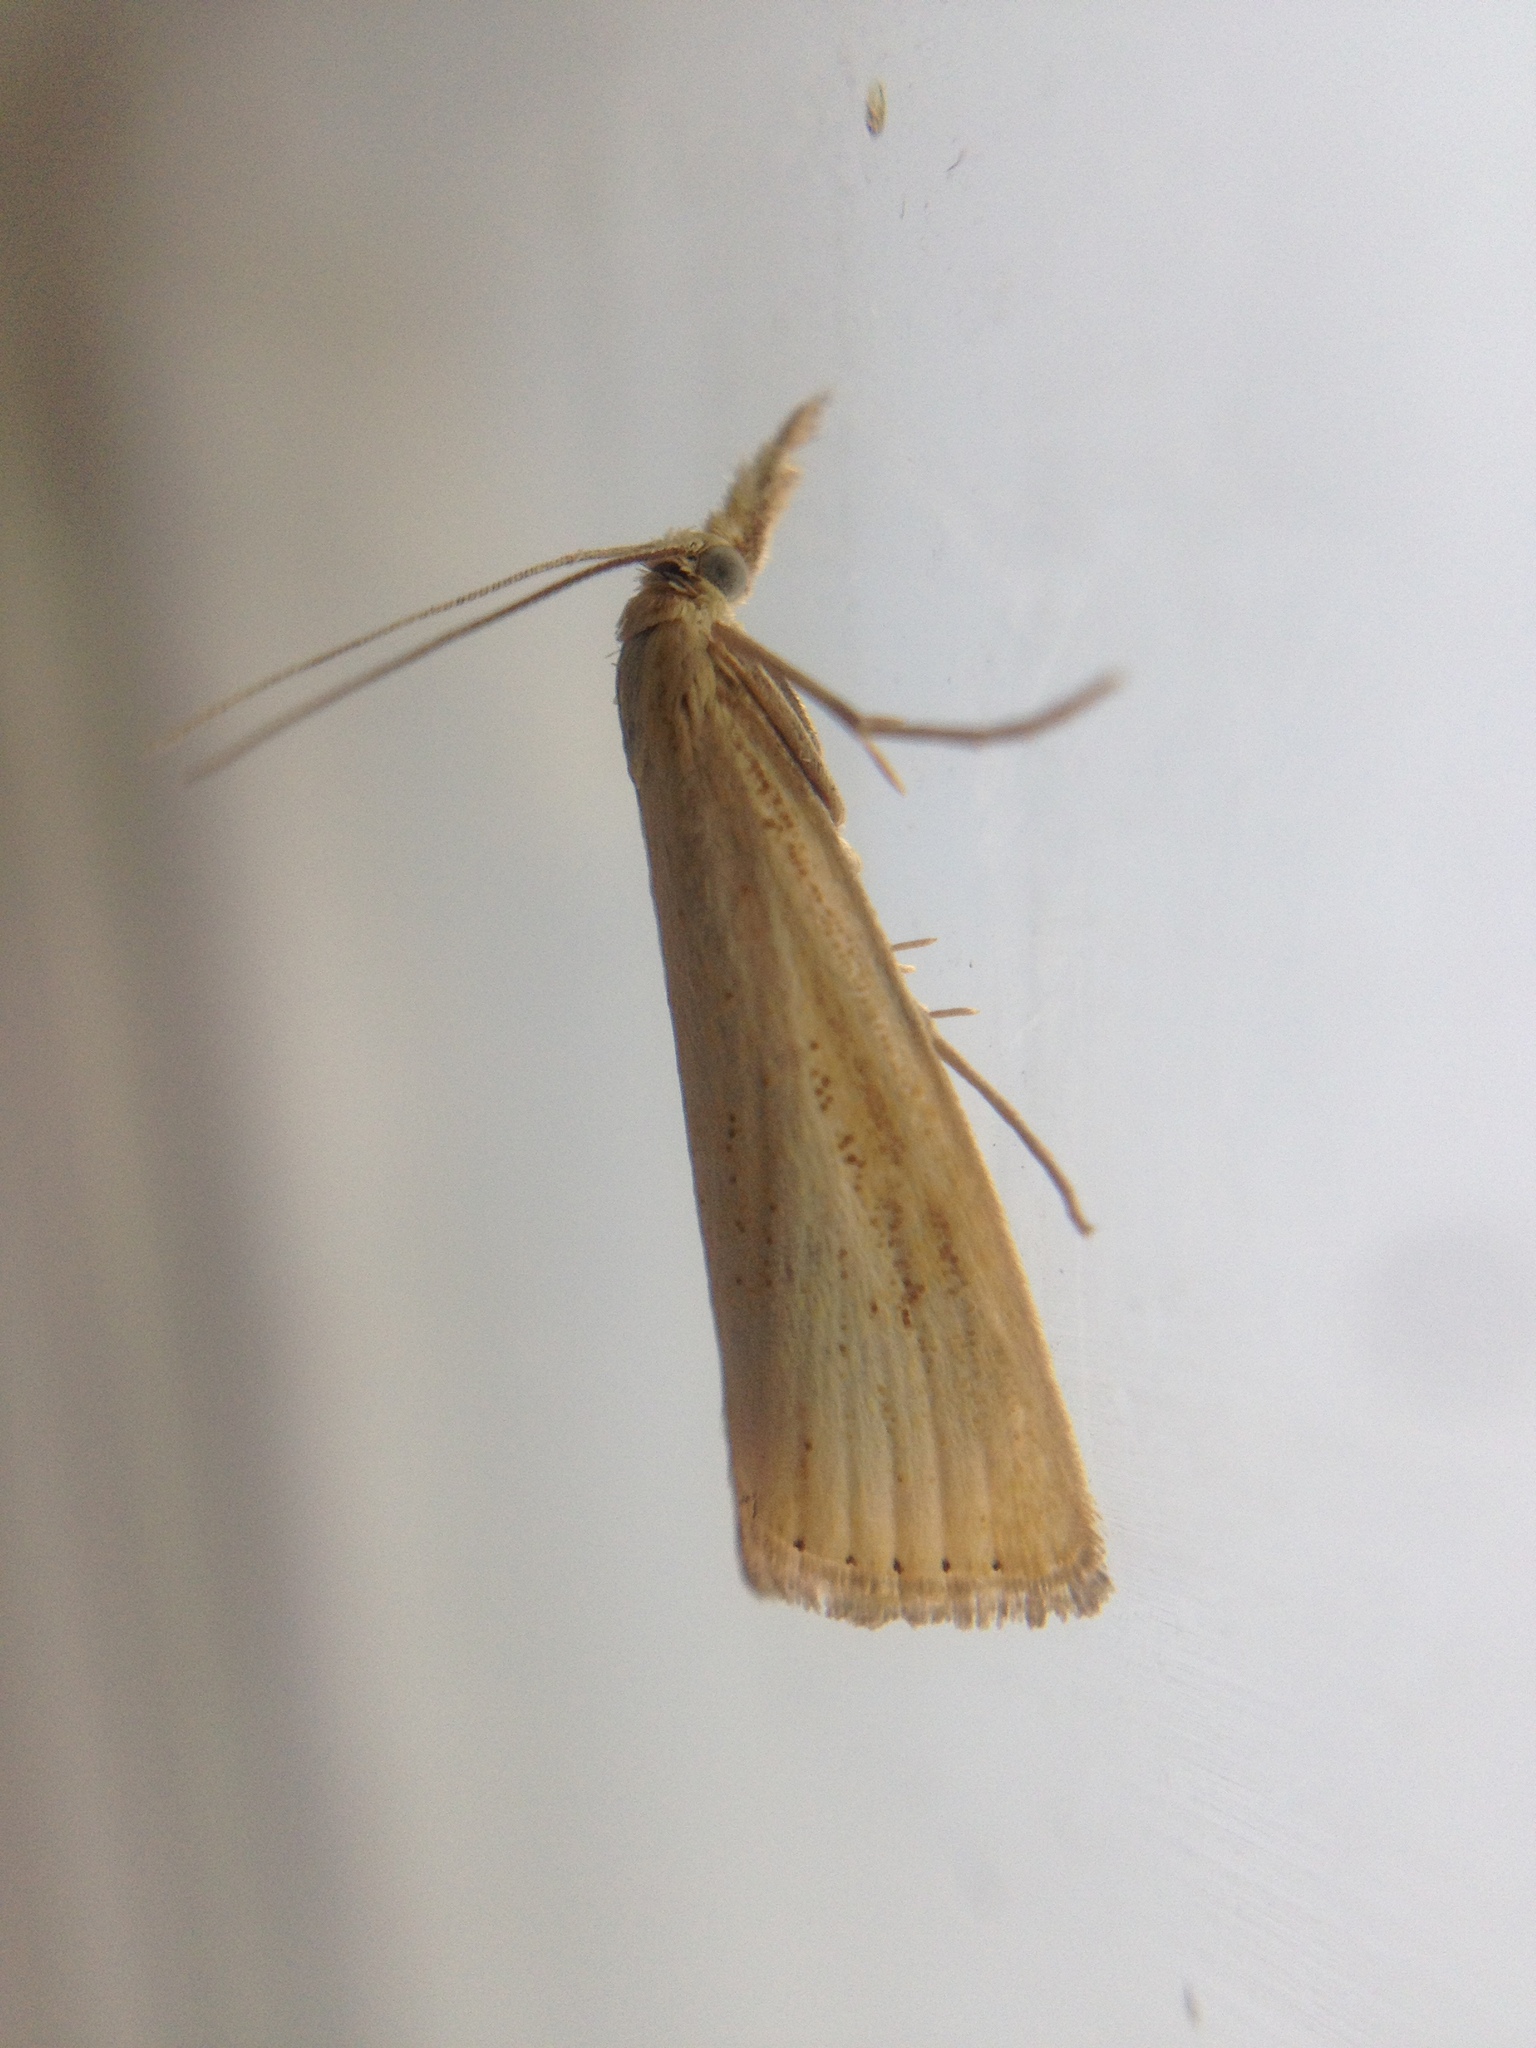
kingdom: Animalia
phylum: Arthropoda
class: Insecta
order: Lepidoptera
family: Crambidae
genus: Agriphila
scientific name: Agriphila straminella
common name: Straw grass-veneer
